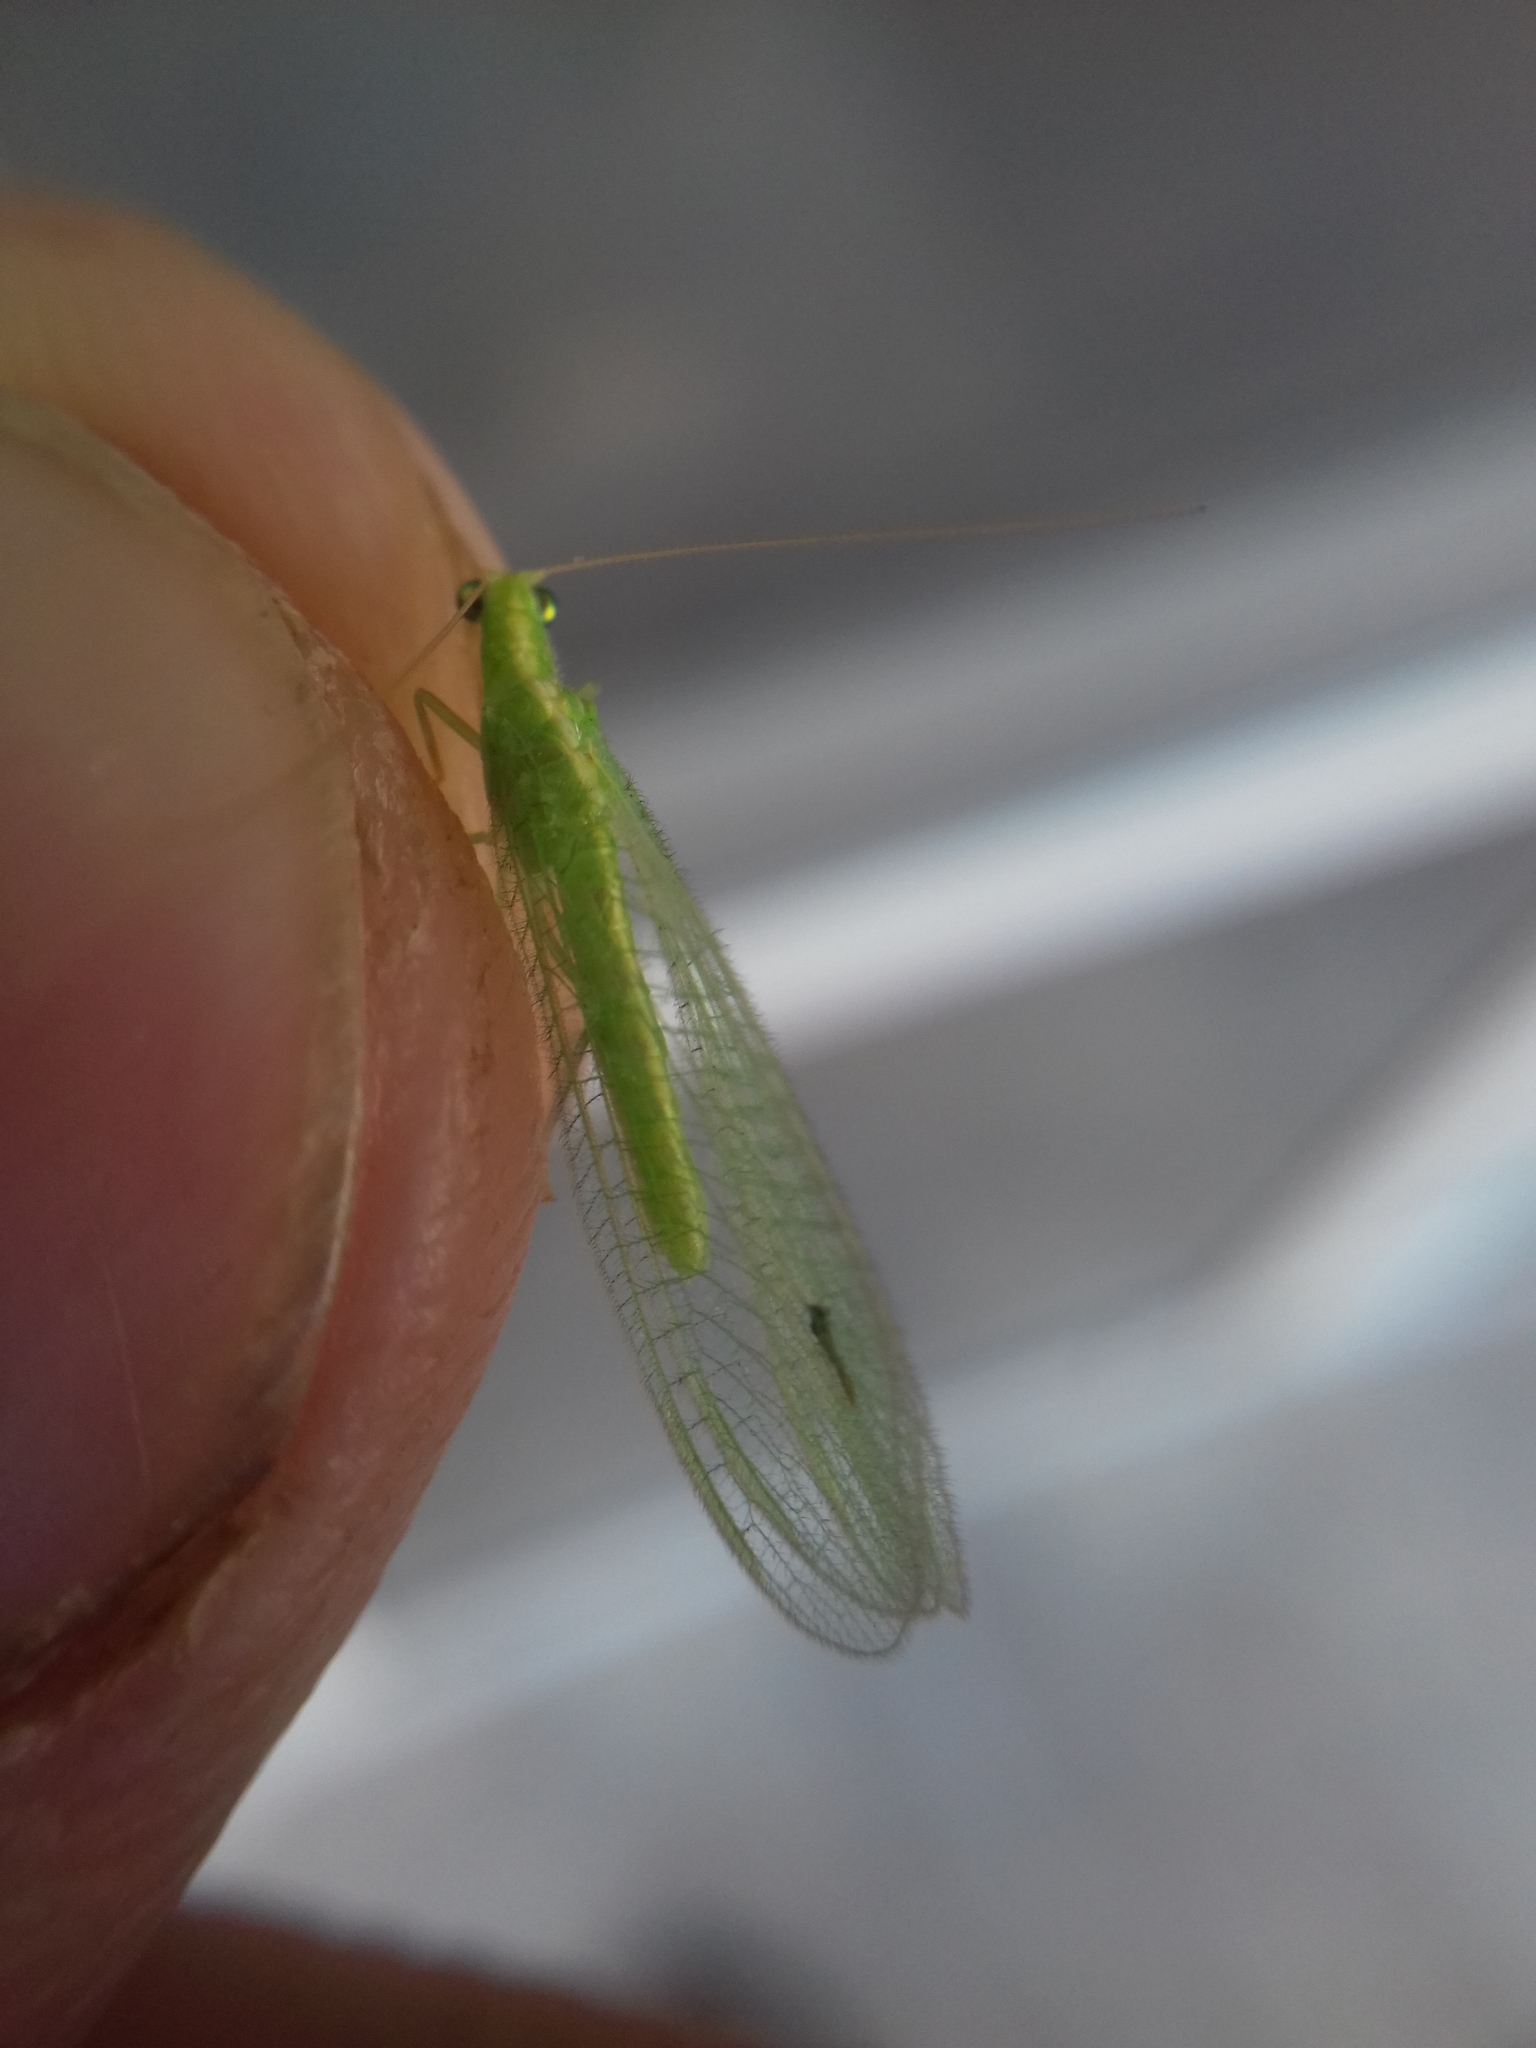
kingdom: Animalia
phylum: Arthropoda
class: Insecta
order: Neuroptera
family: Chrysopidae
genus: Chrysoperla
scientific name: Chrysoperla
